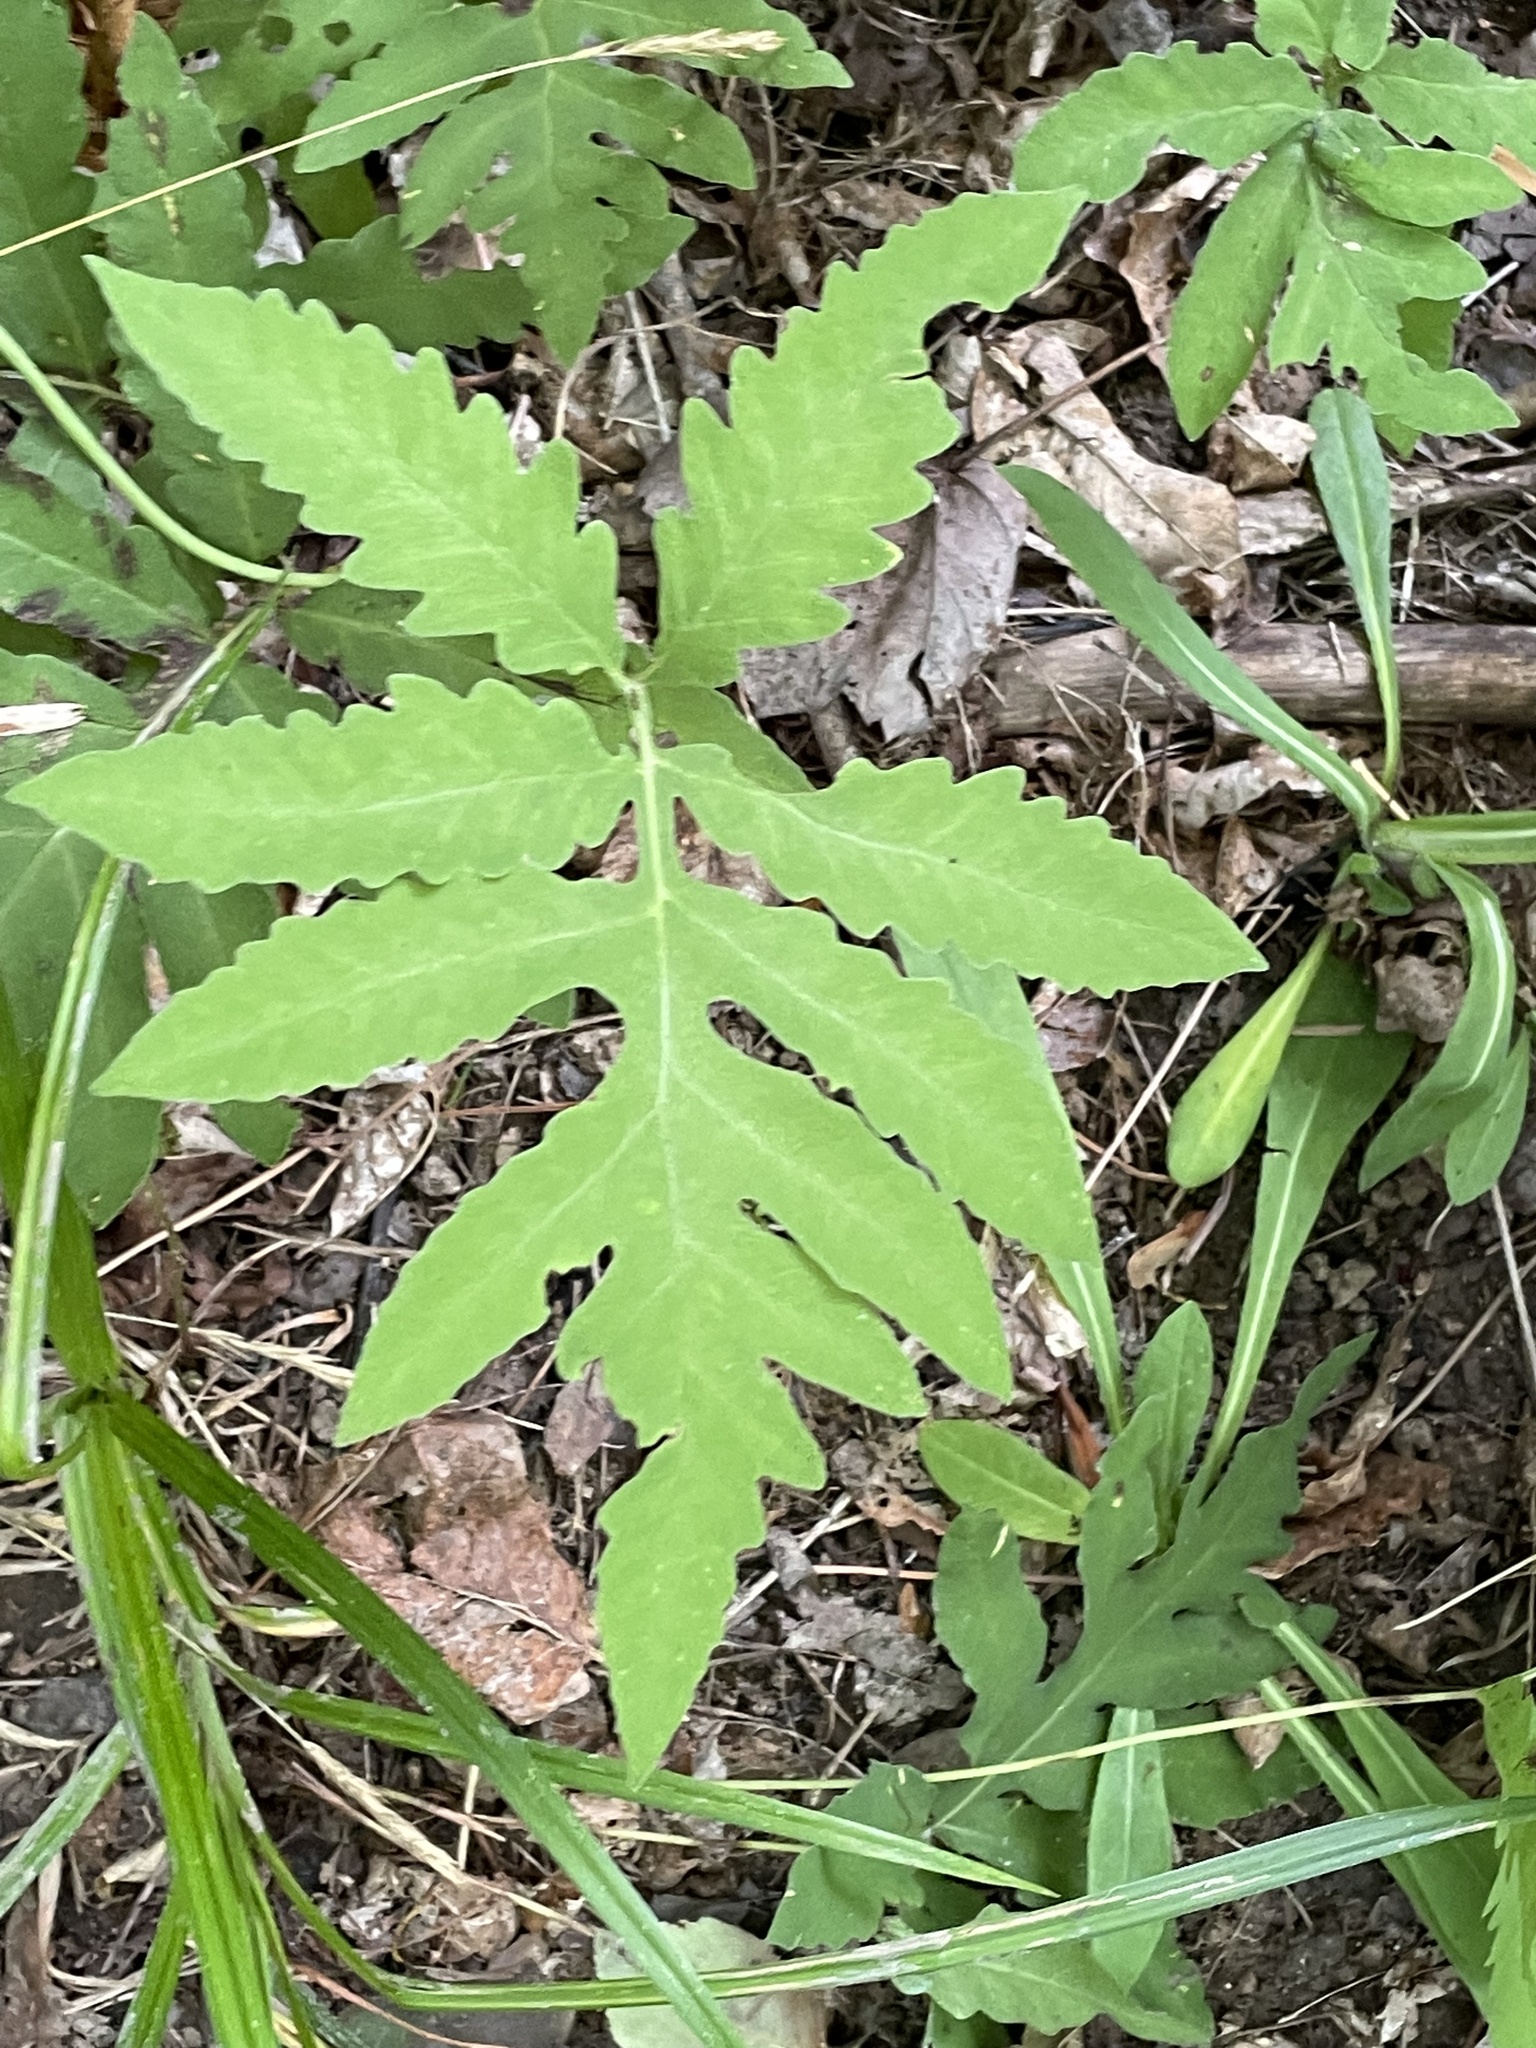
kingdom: Plantae
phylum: Tracheophyta
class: Polypodiopsida
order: Polypodiales
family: Onocleaceae
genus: Onoclea
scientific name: Onoclea sensibilis
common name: Sensitive fern
